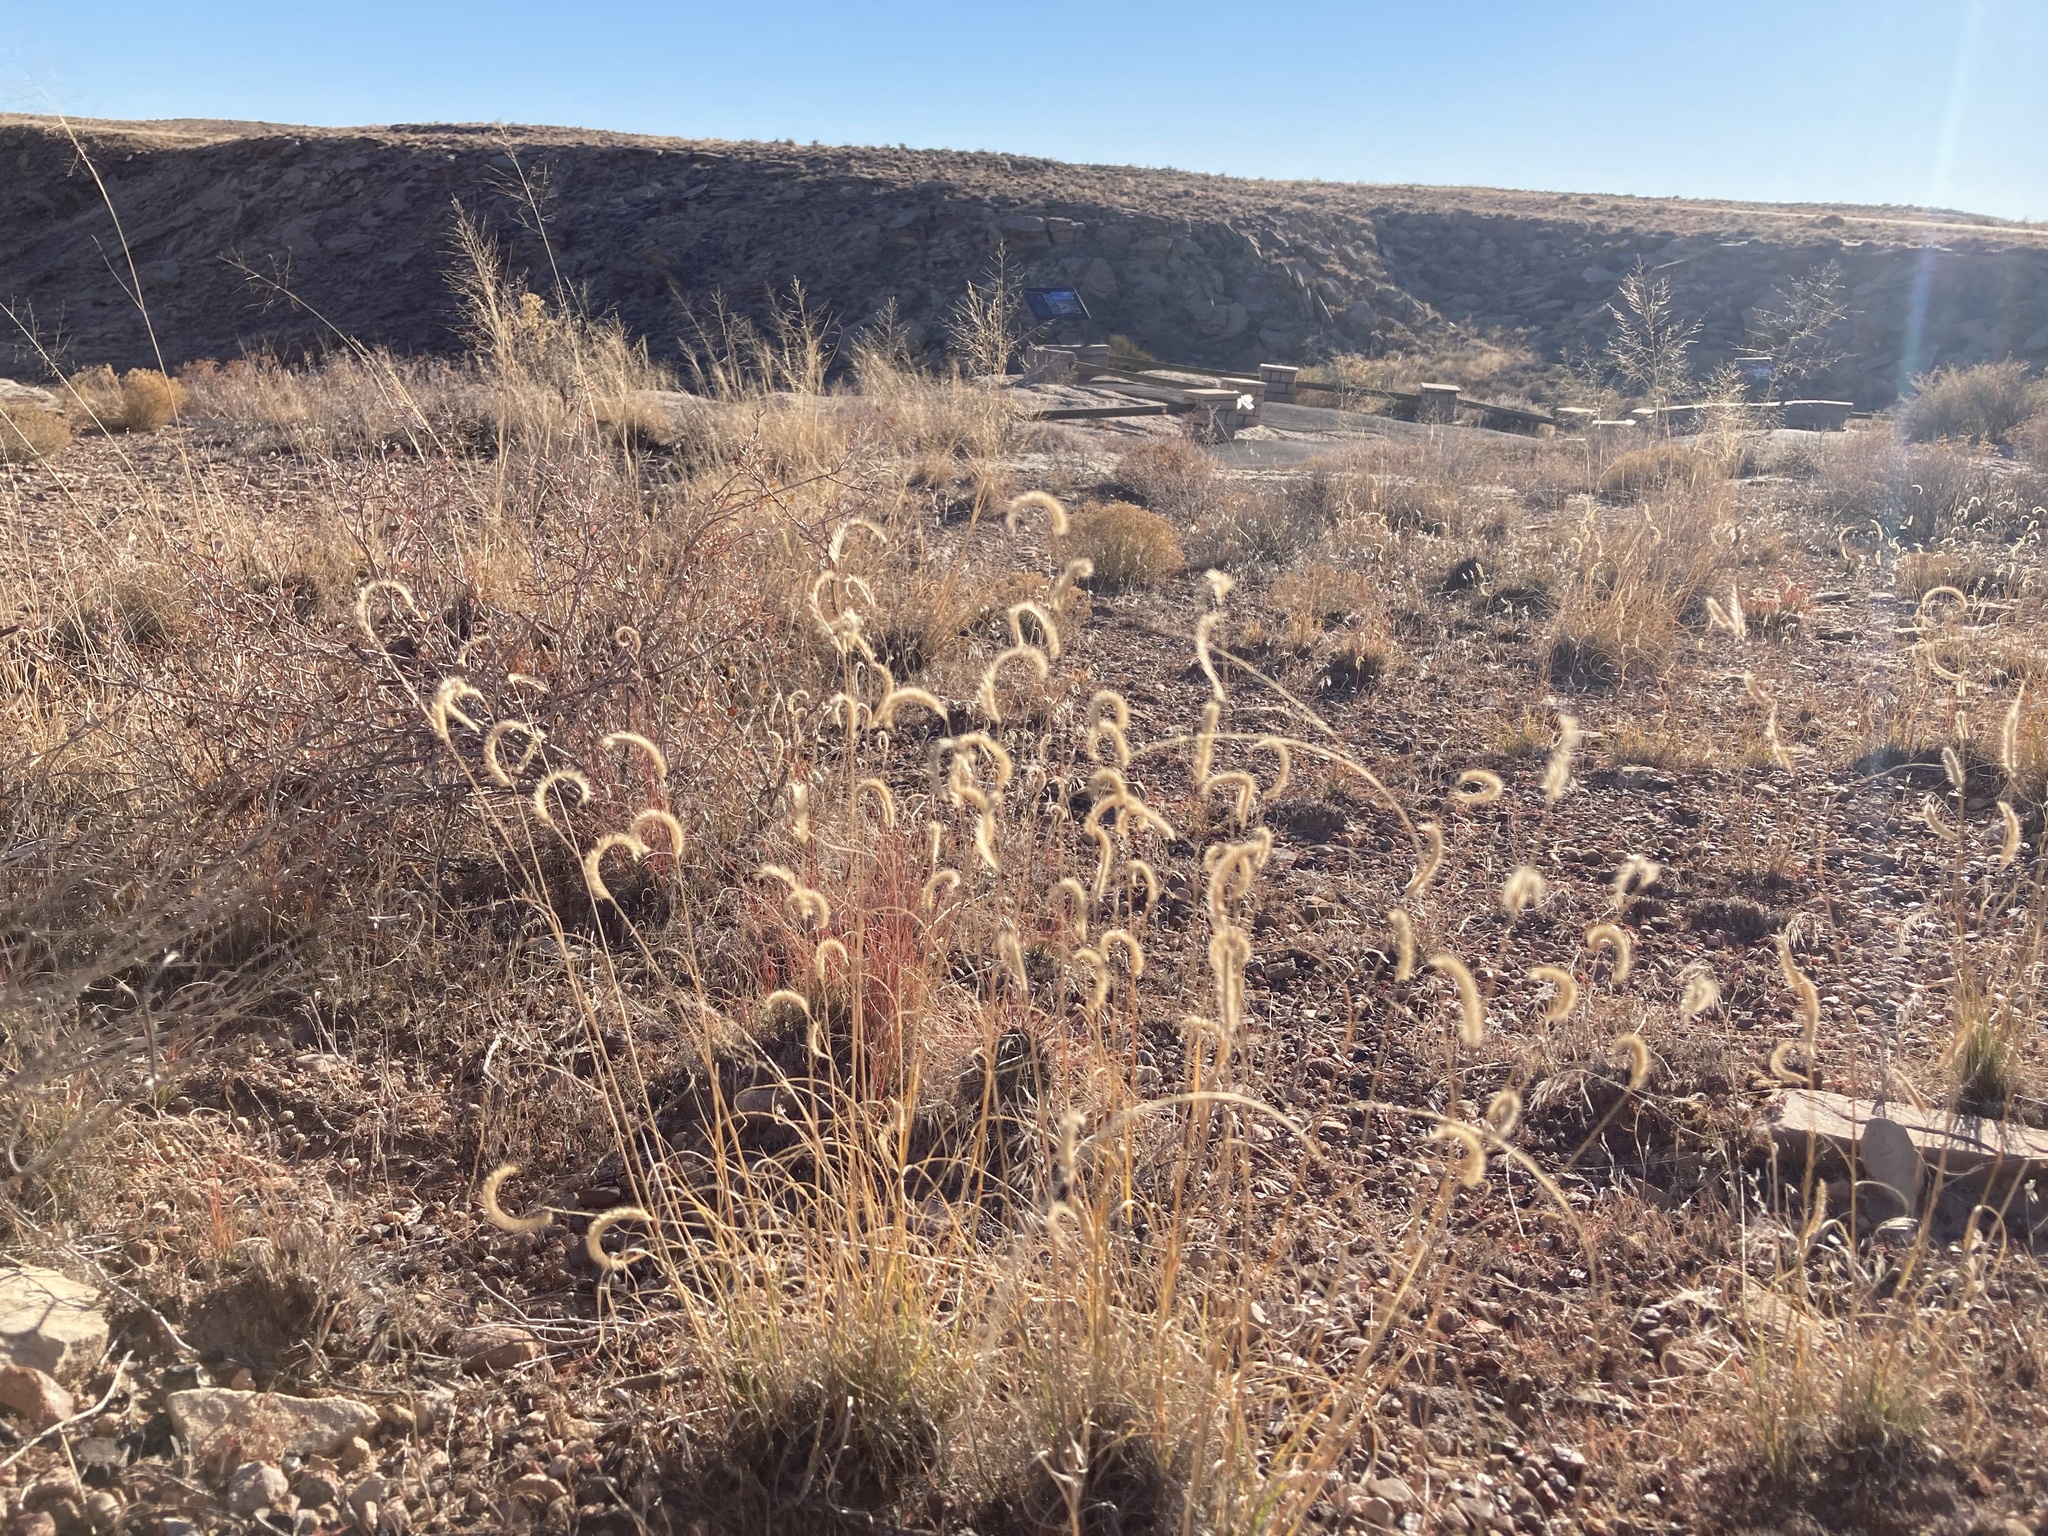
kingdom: Plantae
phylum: Tracheophyta
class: Liliopsida
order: Poales
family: Poaceae
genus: Bouteloua
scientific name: Bouteloua gracilis
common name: Blue grama
